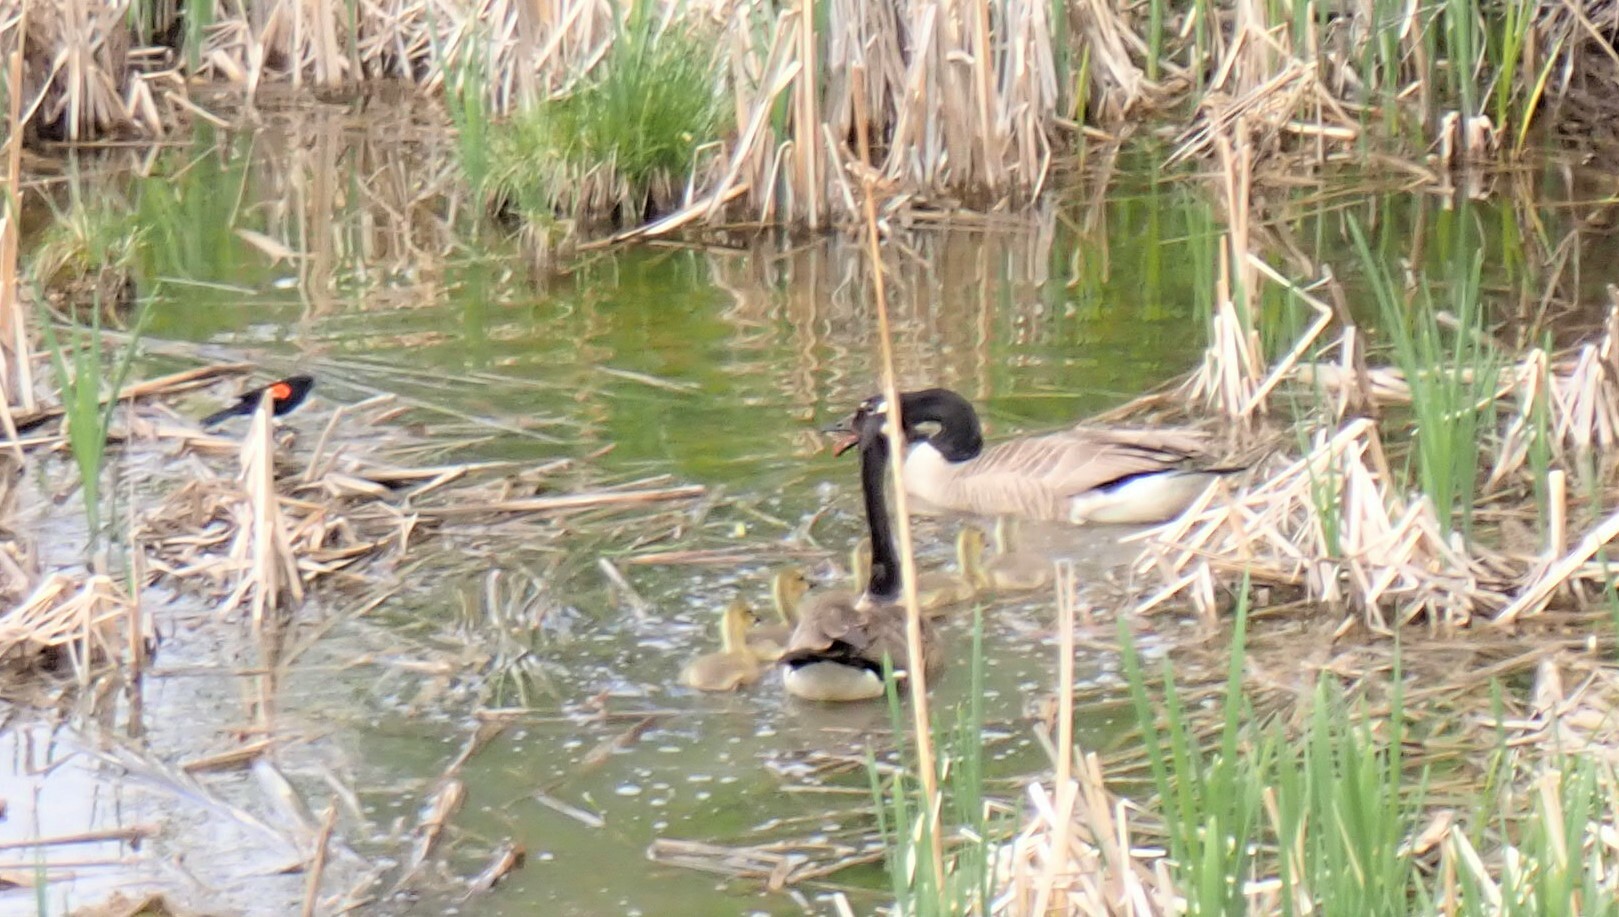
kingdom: Animalia
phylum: Chordata
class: Aves
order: Anseriformes
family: Anatidae
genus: Branta
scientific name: Branta canadensis
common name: Canada goose
